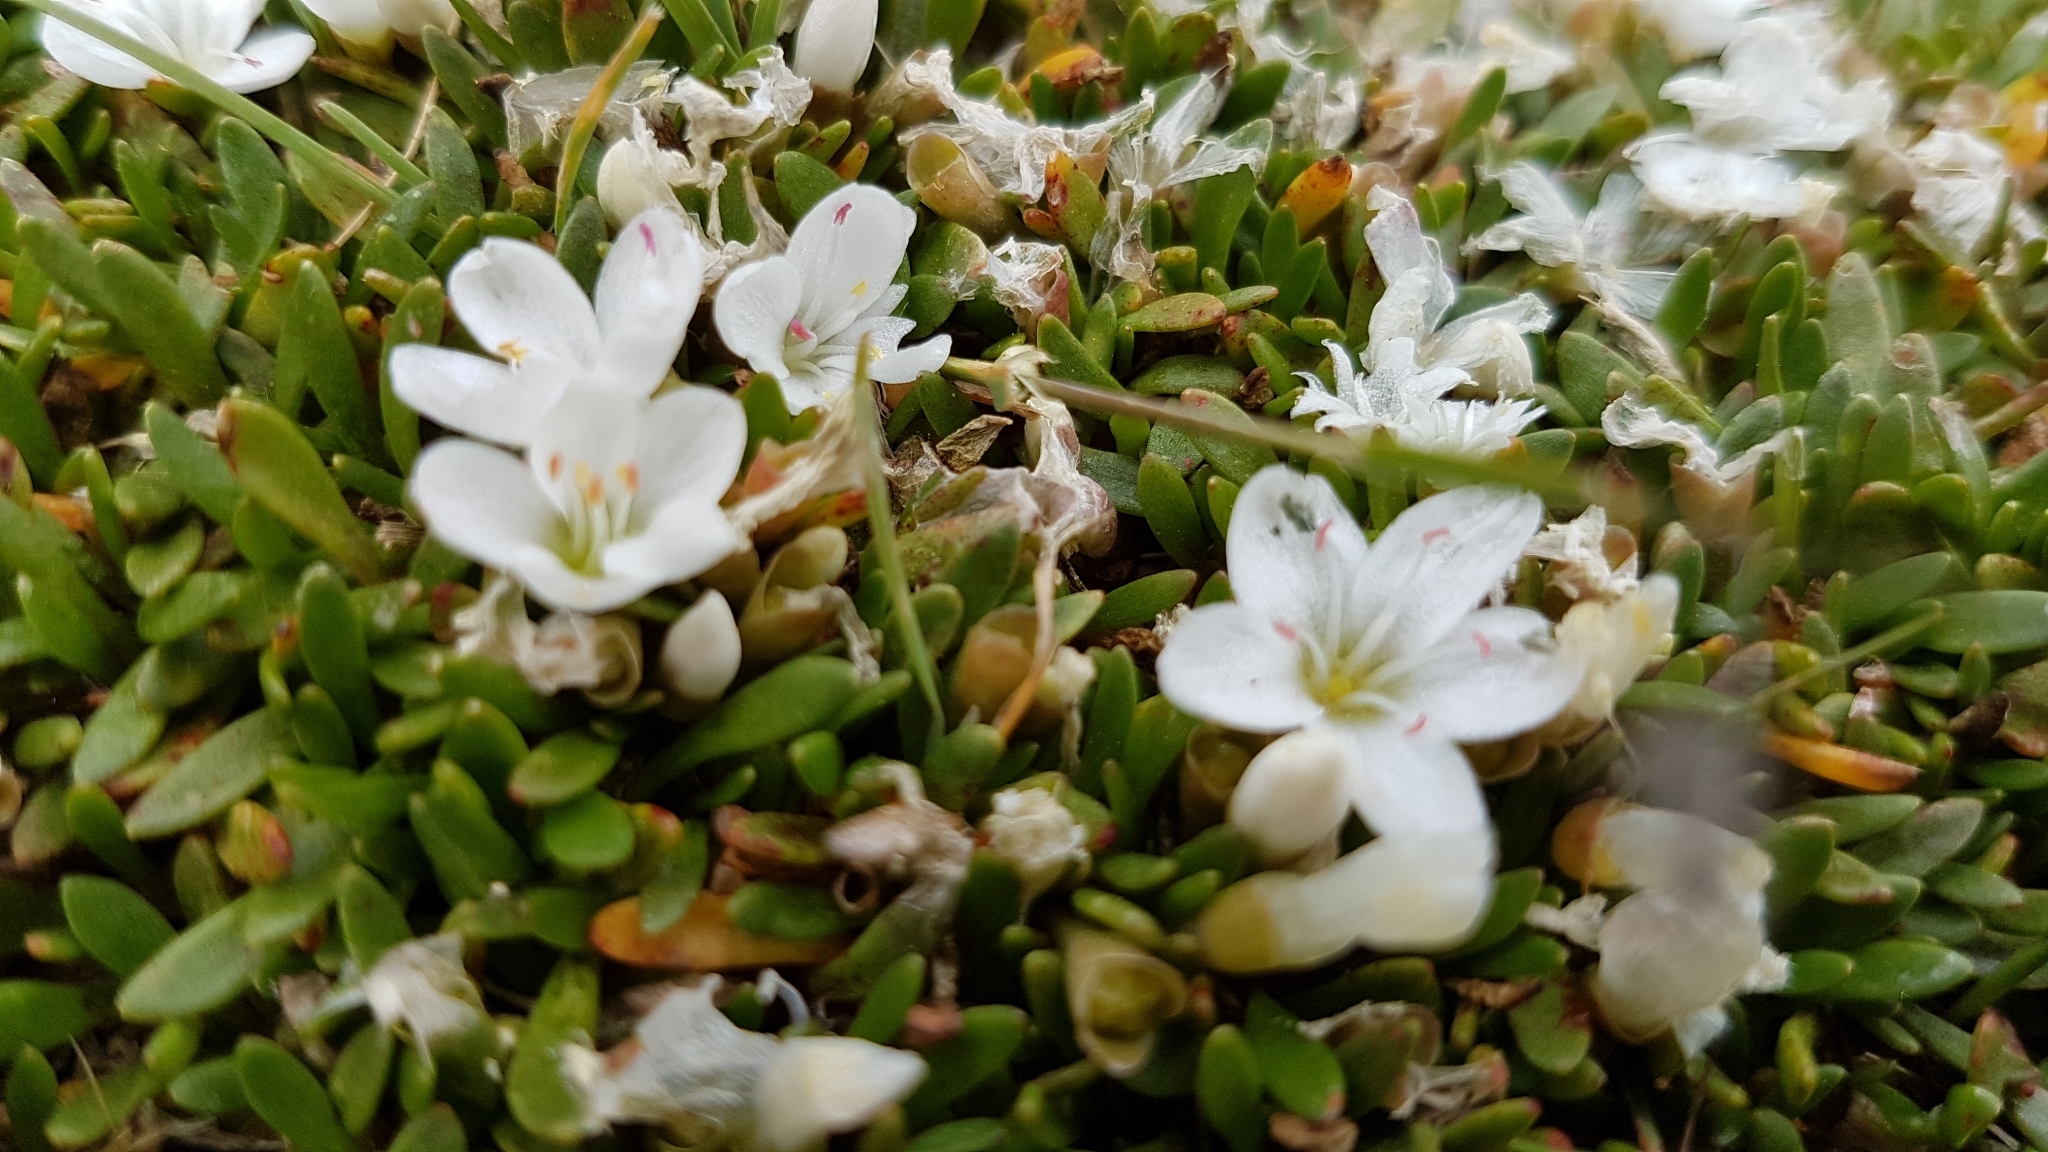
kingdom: Plantae
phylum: Tracheophyta
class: Magnoliopsida
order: Caryophyllales
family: Montiaceae
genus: Montia
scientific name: Montia sessiliflora
